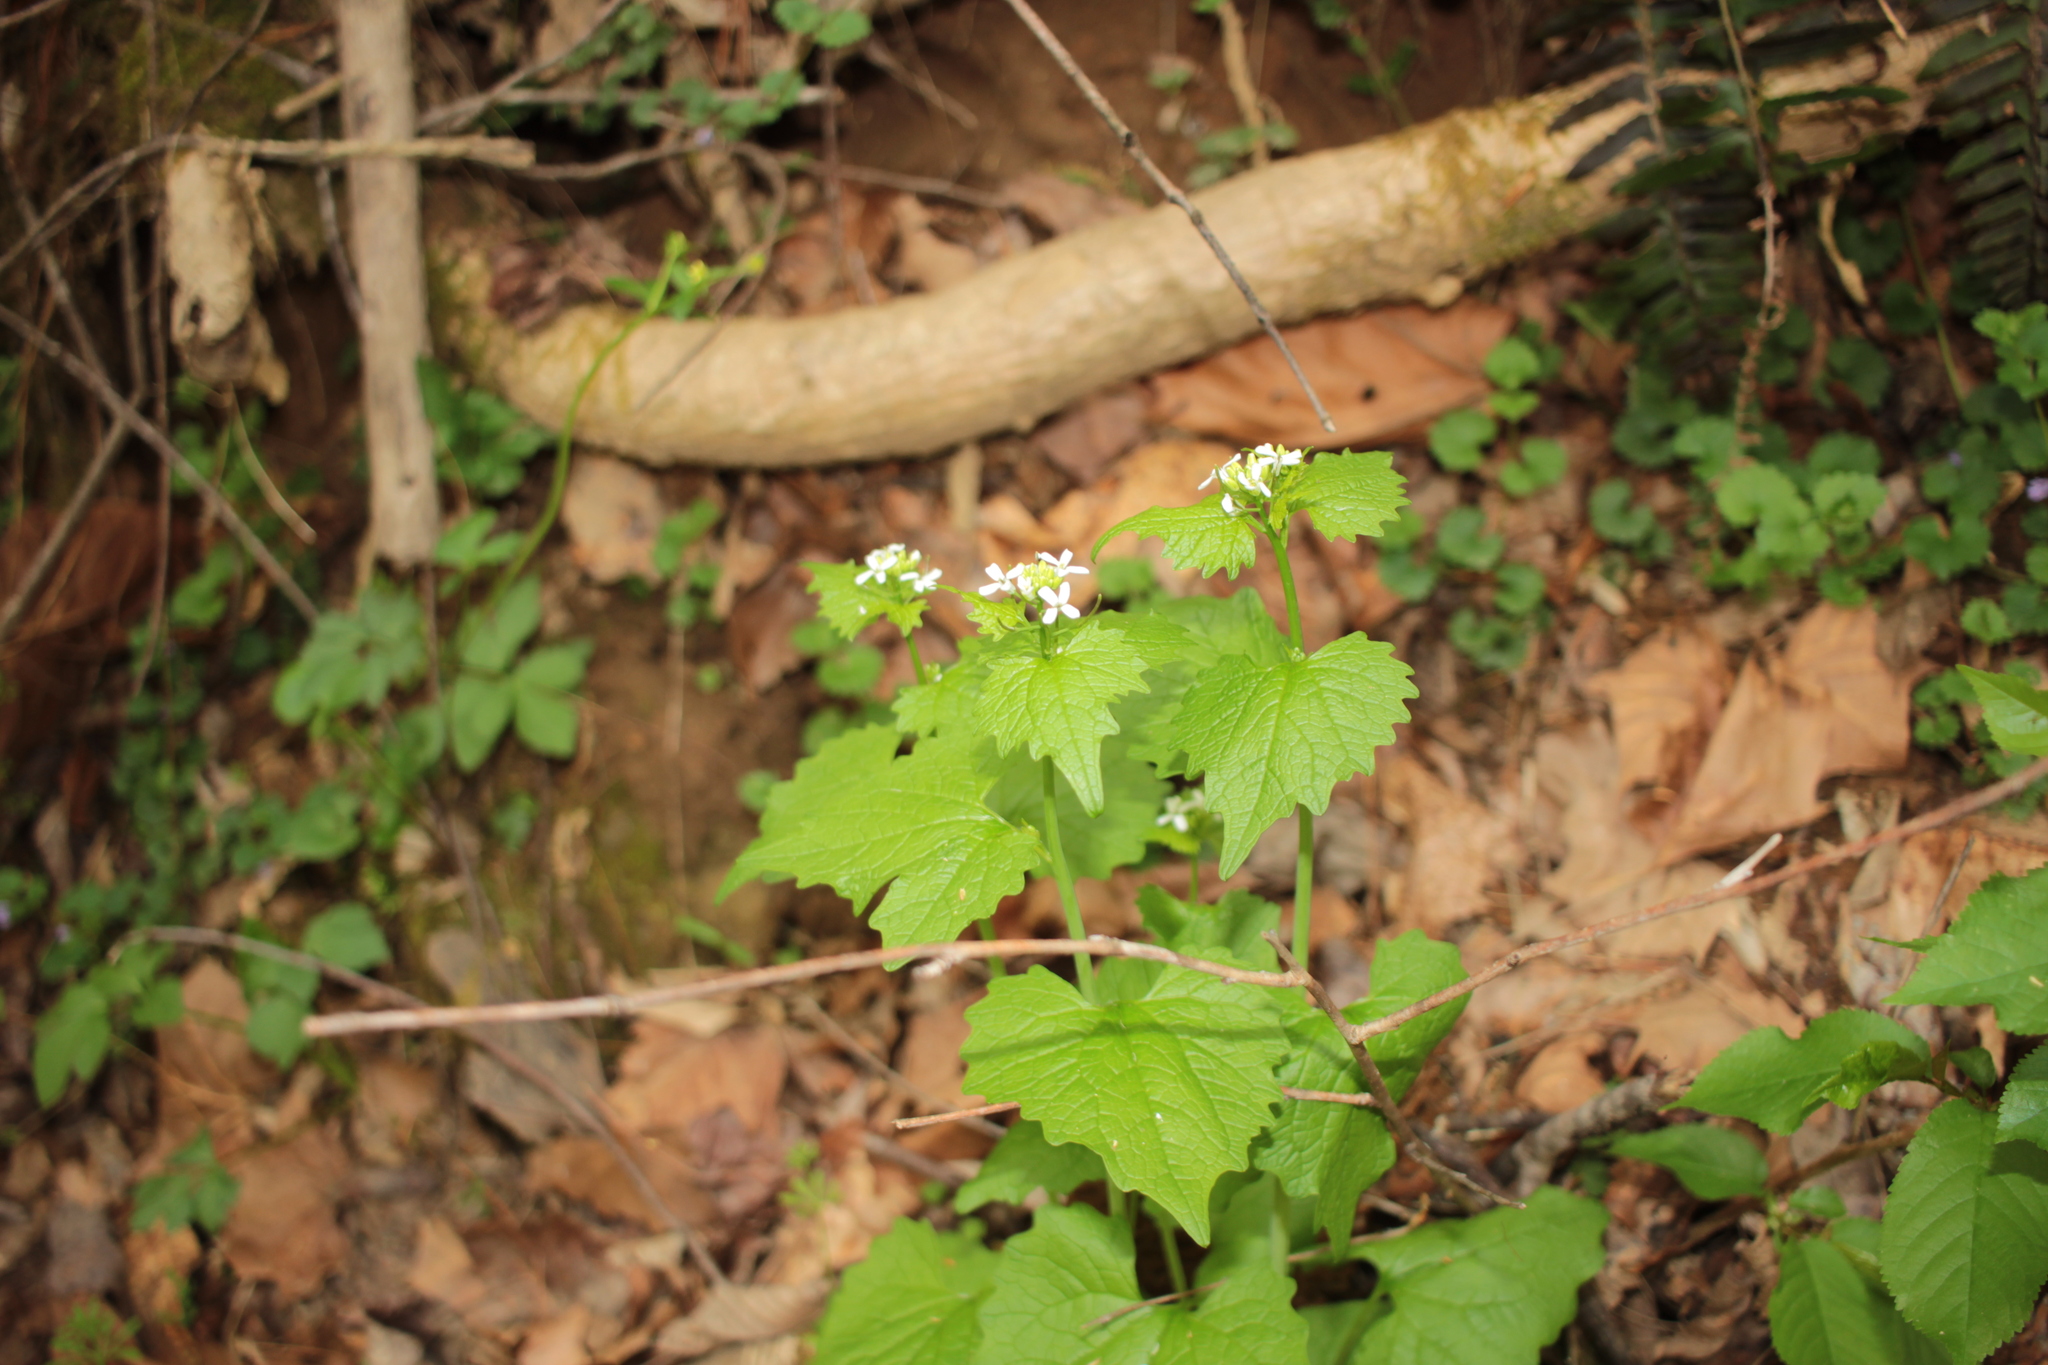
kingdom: Plantae
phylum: Tracheophyta
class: Magnoliopsida
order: Brassicales
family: Brassicaceae
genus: Alliaria
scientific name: Alliaria petiolata
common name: Garlic mustard
